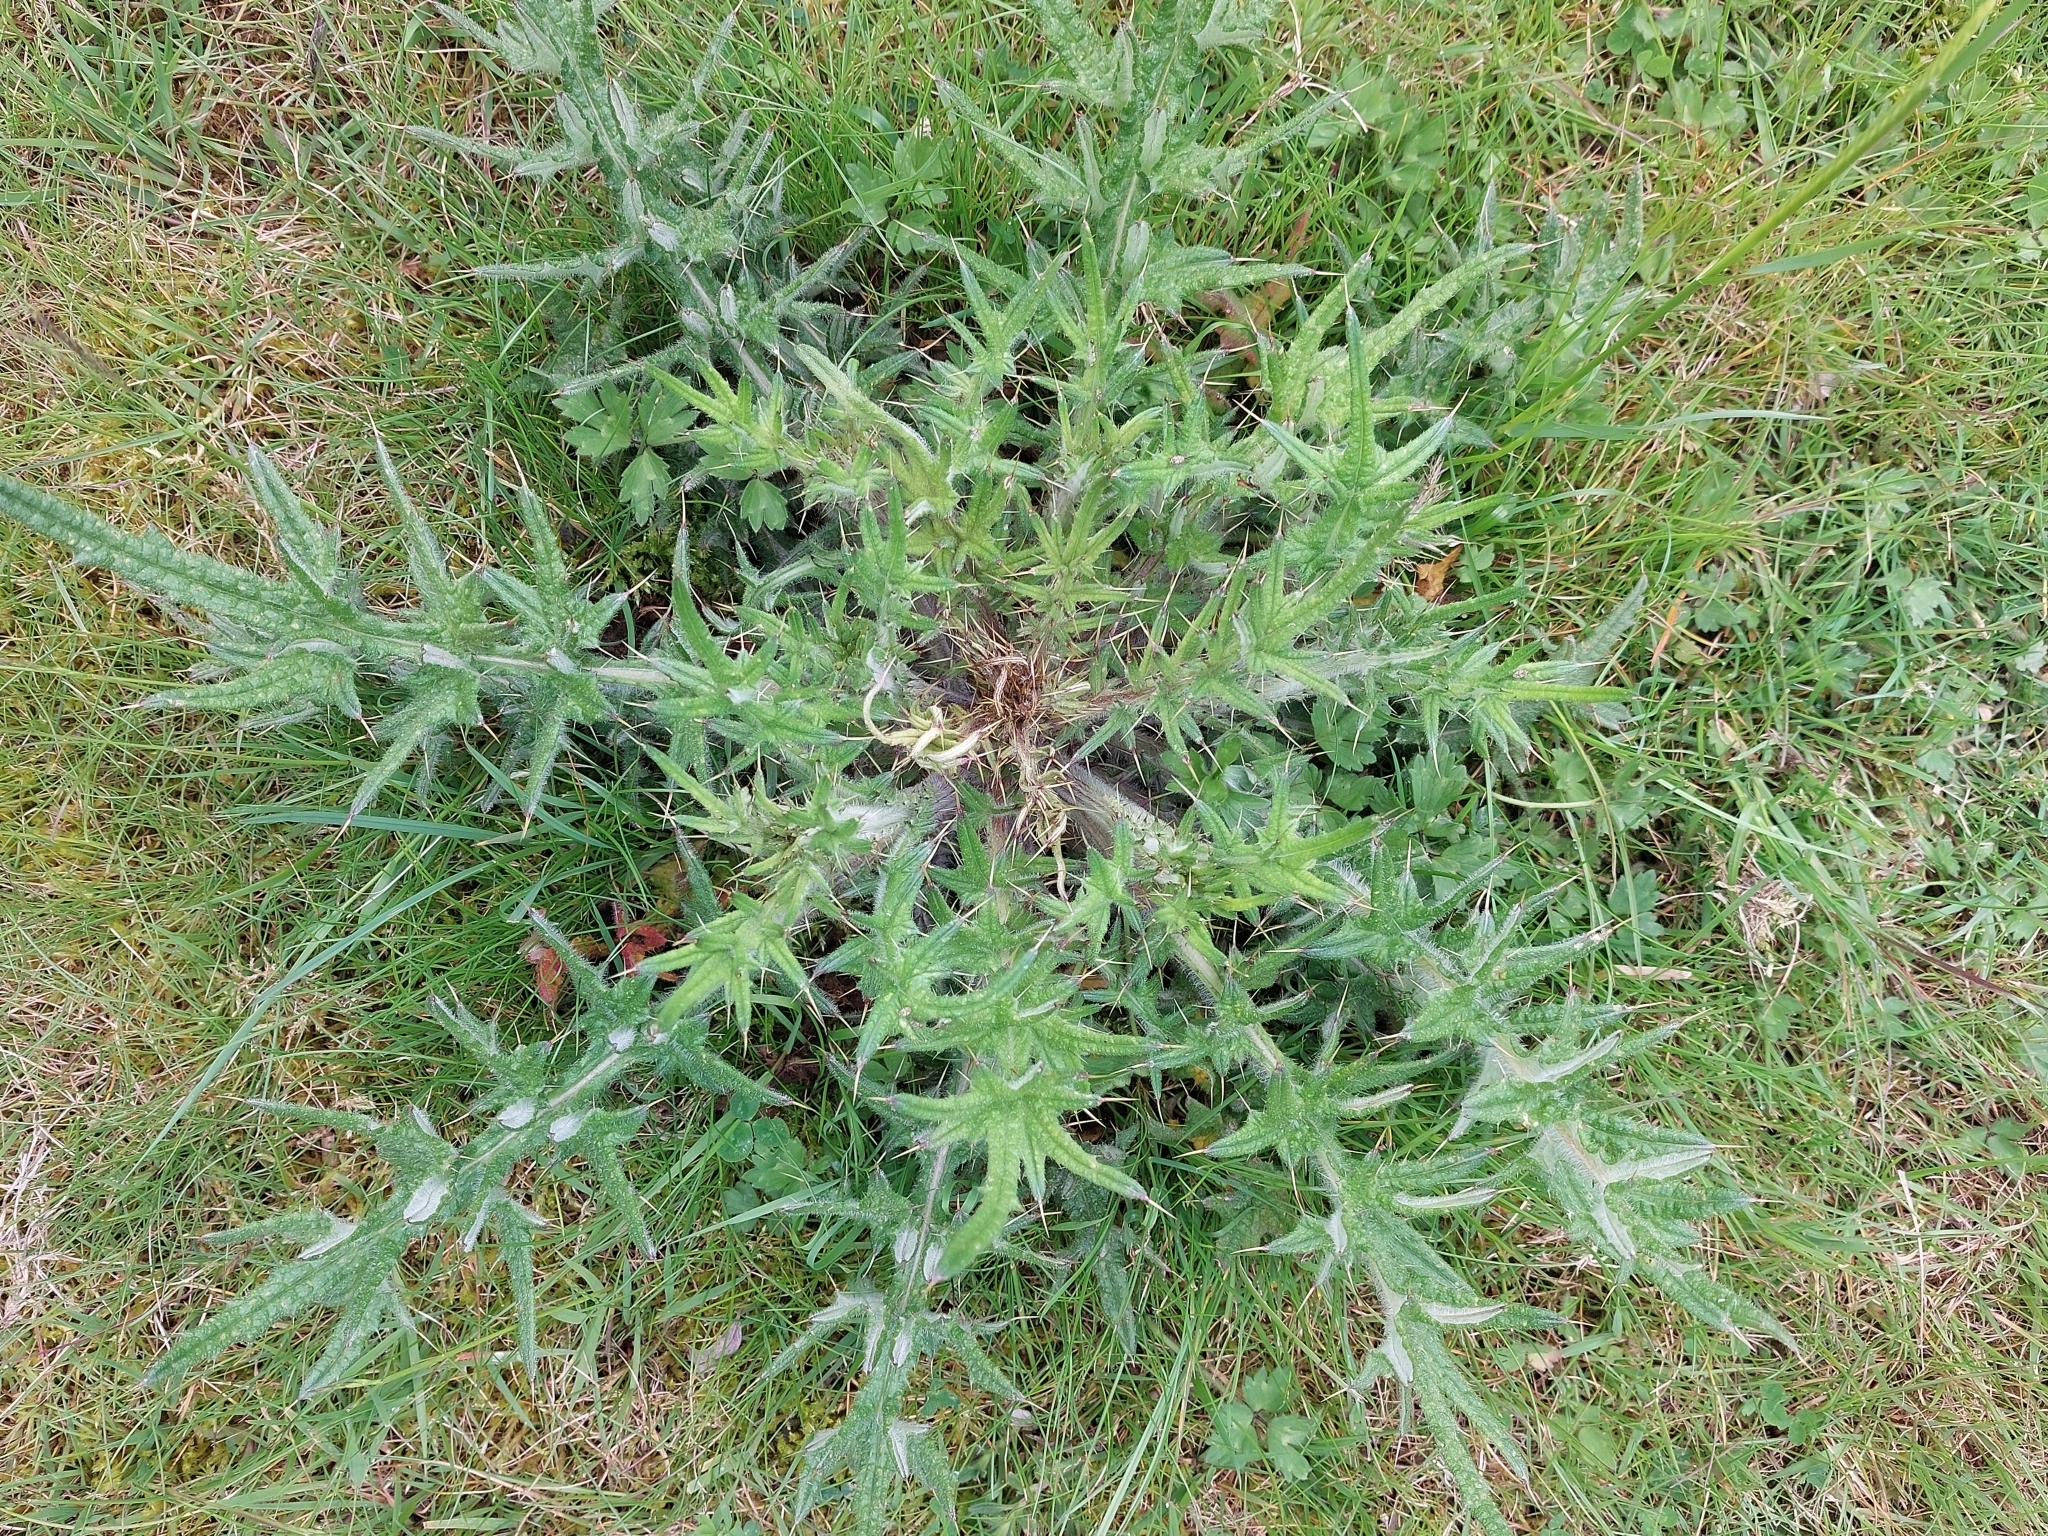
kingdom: Plantae
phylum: Tracheophyta
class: Magnoliopsida
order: Asterales
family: Asteraceae
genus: Cirsium
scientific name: Cirsium vulgare
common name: Bull thistle
